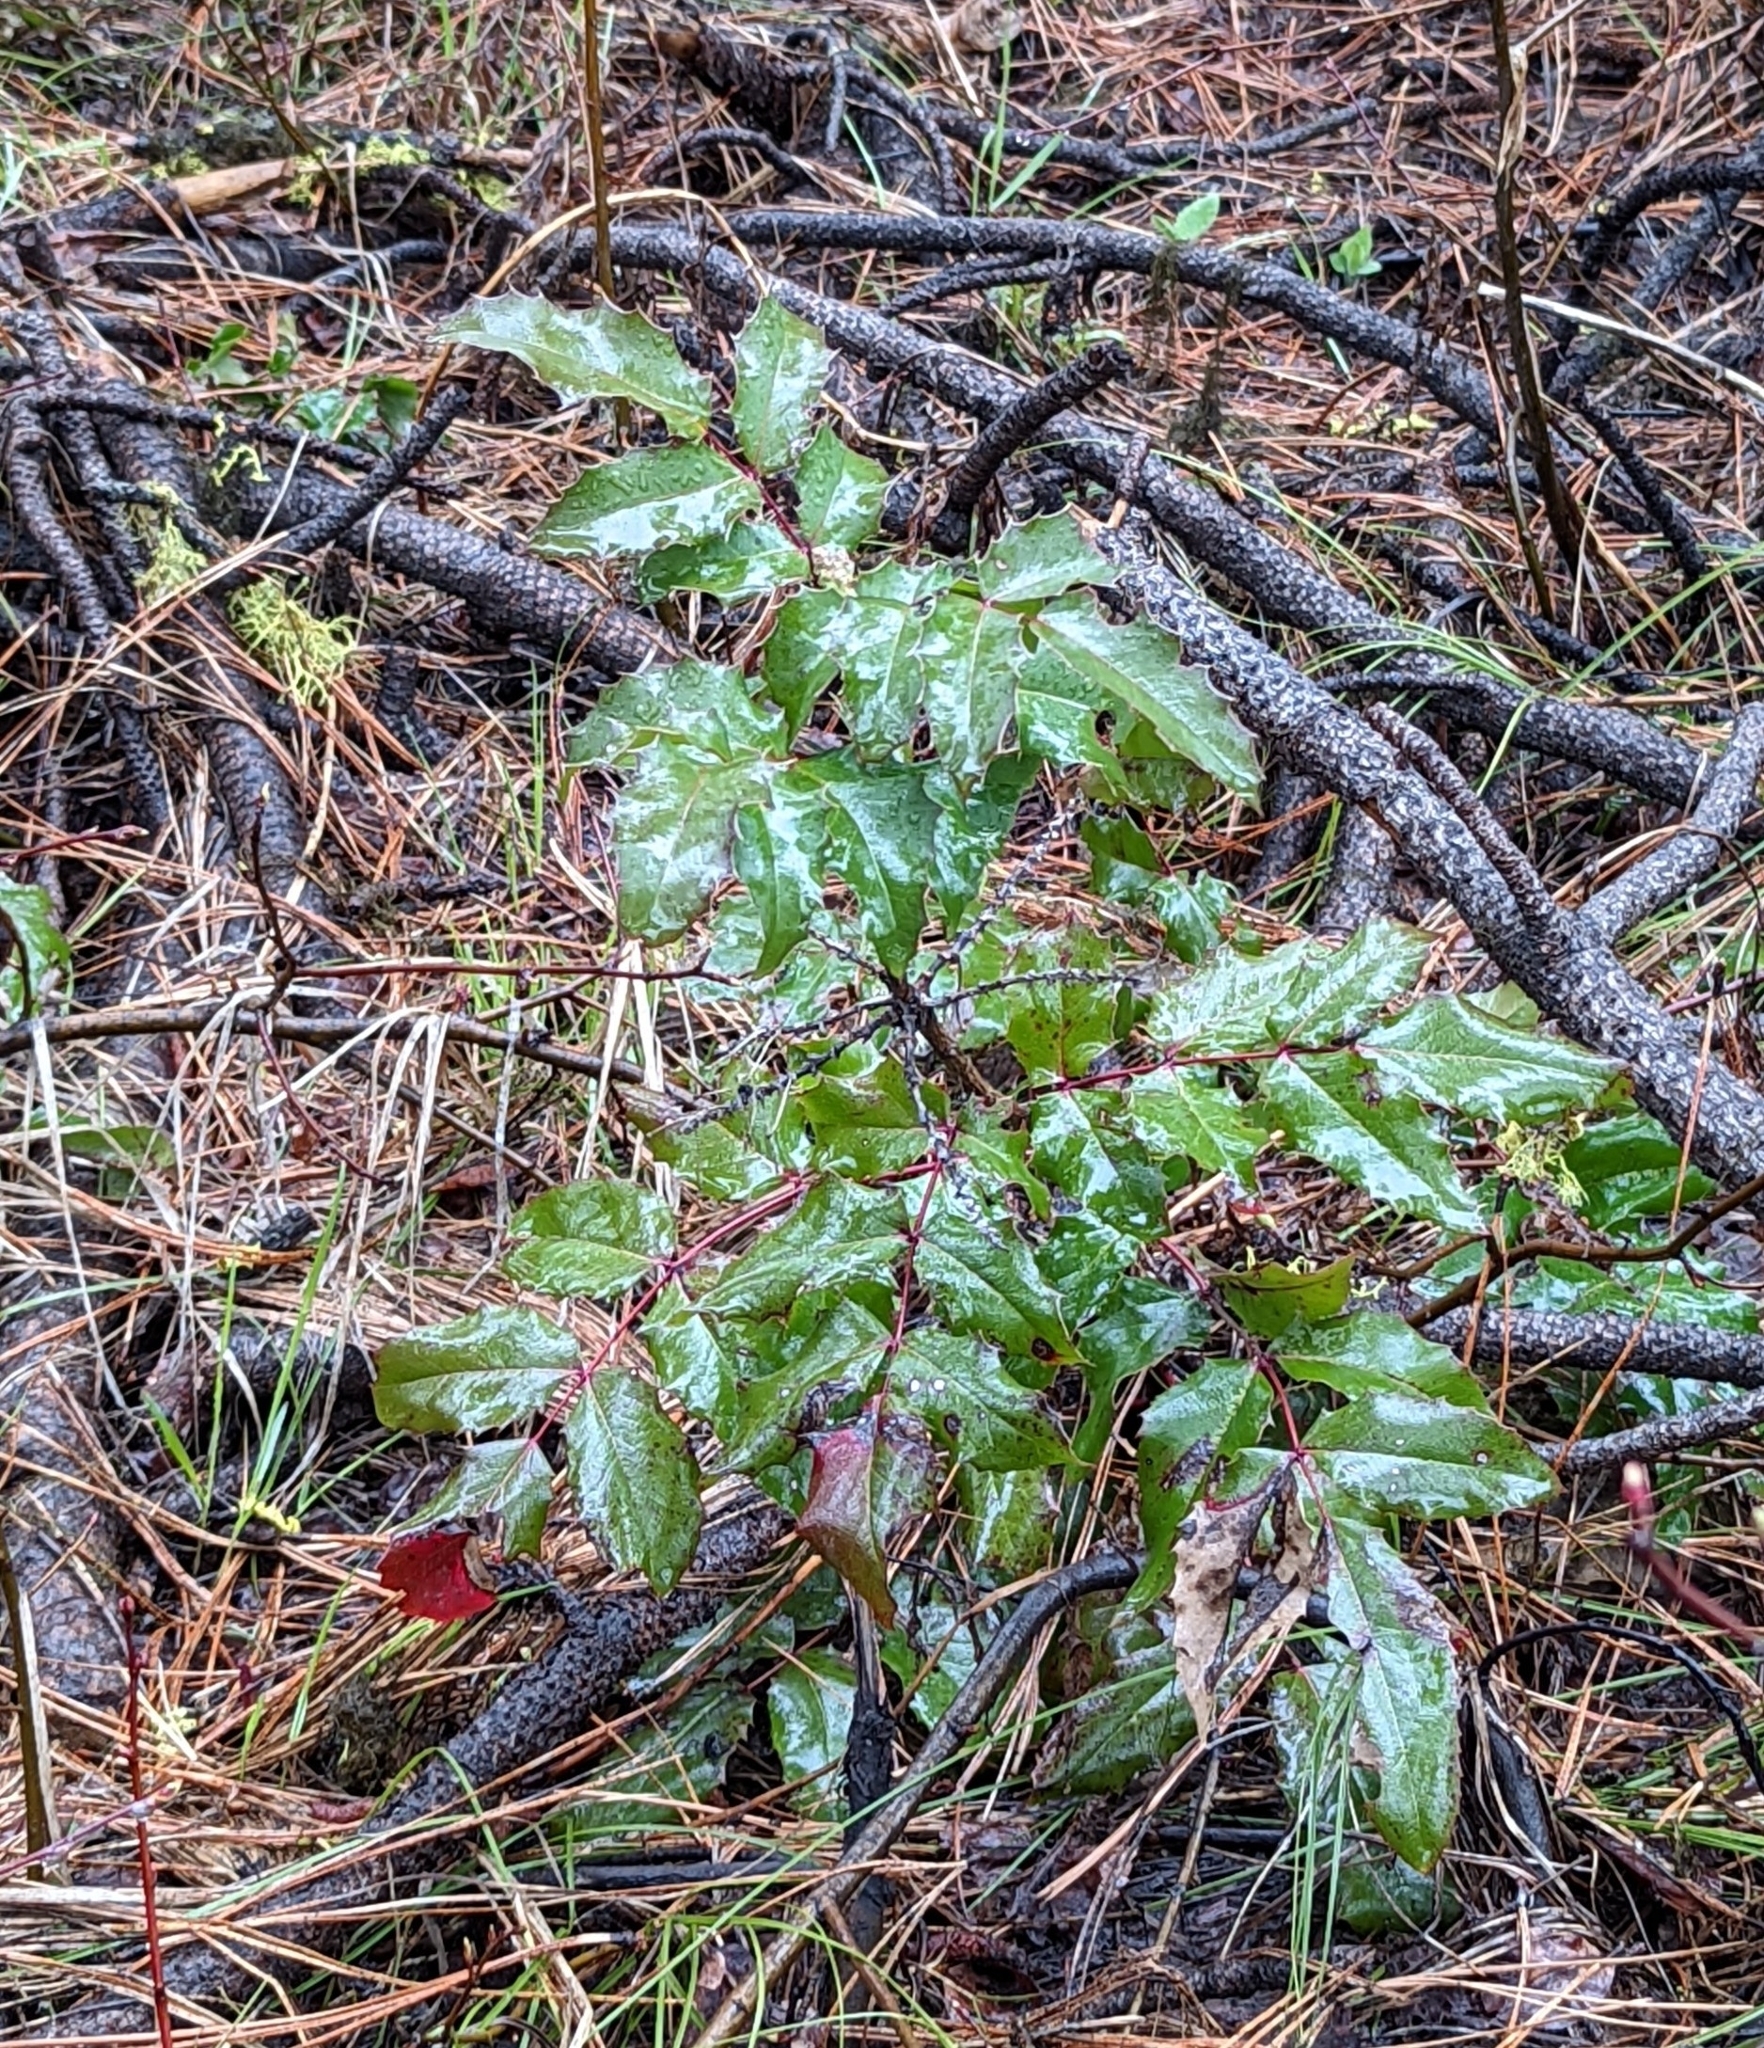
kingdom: Plantae
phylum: Tracheophyta
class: Magnoliopsida
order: Ranunculales
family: Berberidaceae
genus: Mahonia
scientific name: Mahonia aquifolium
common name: Oregon-grape
